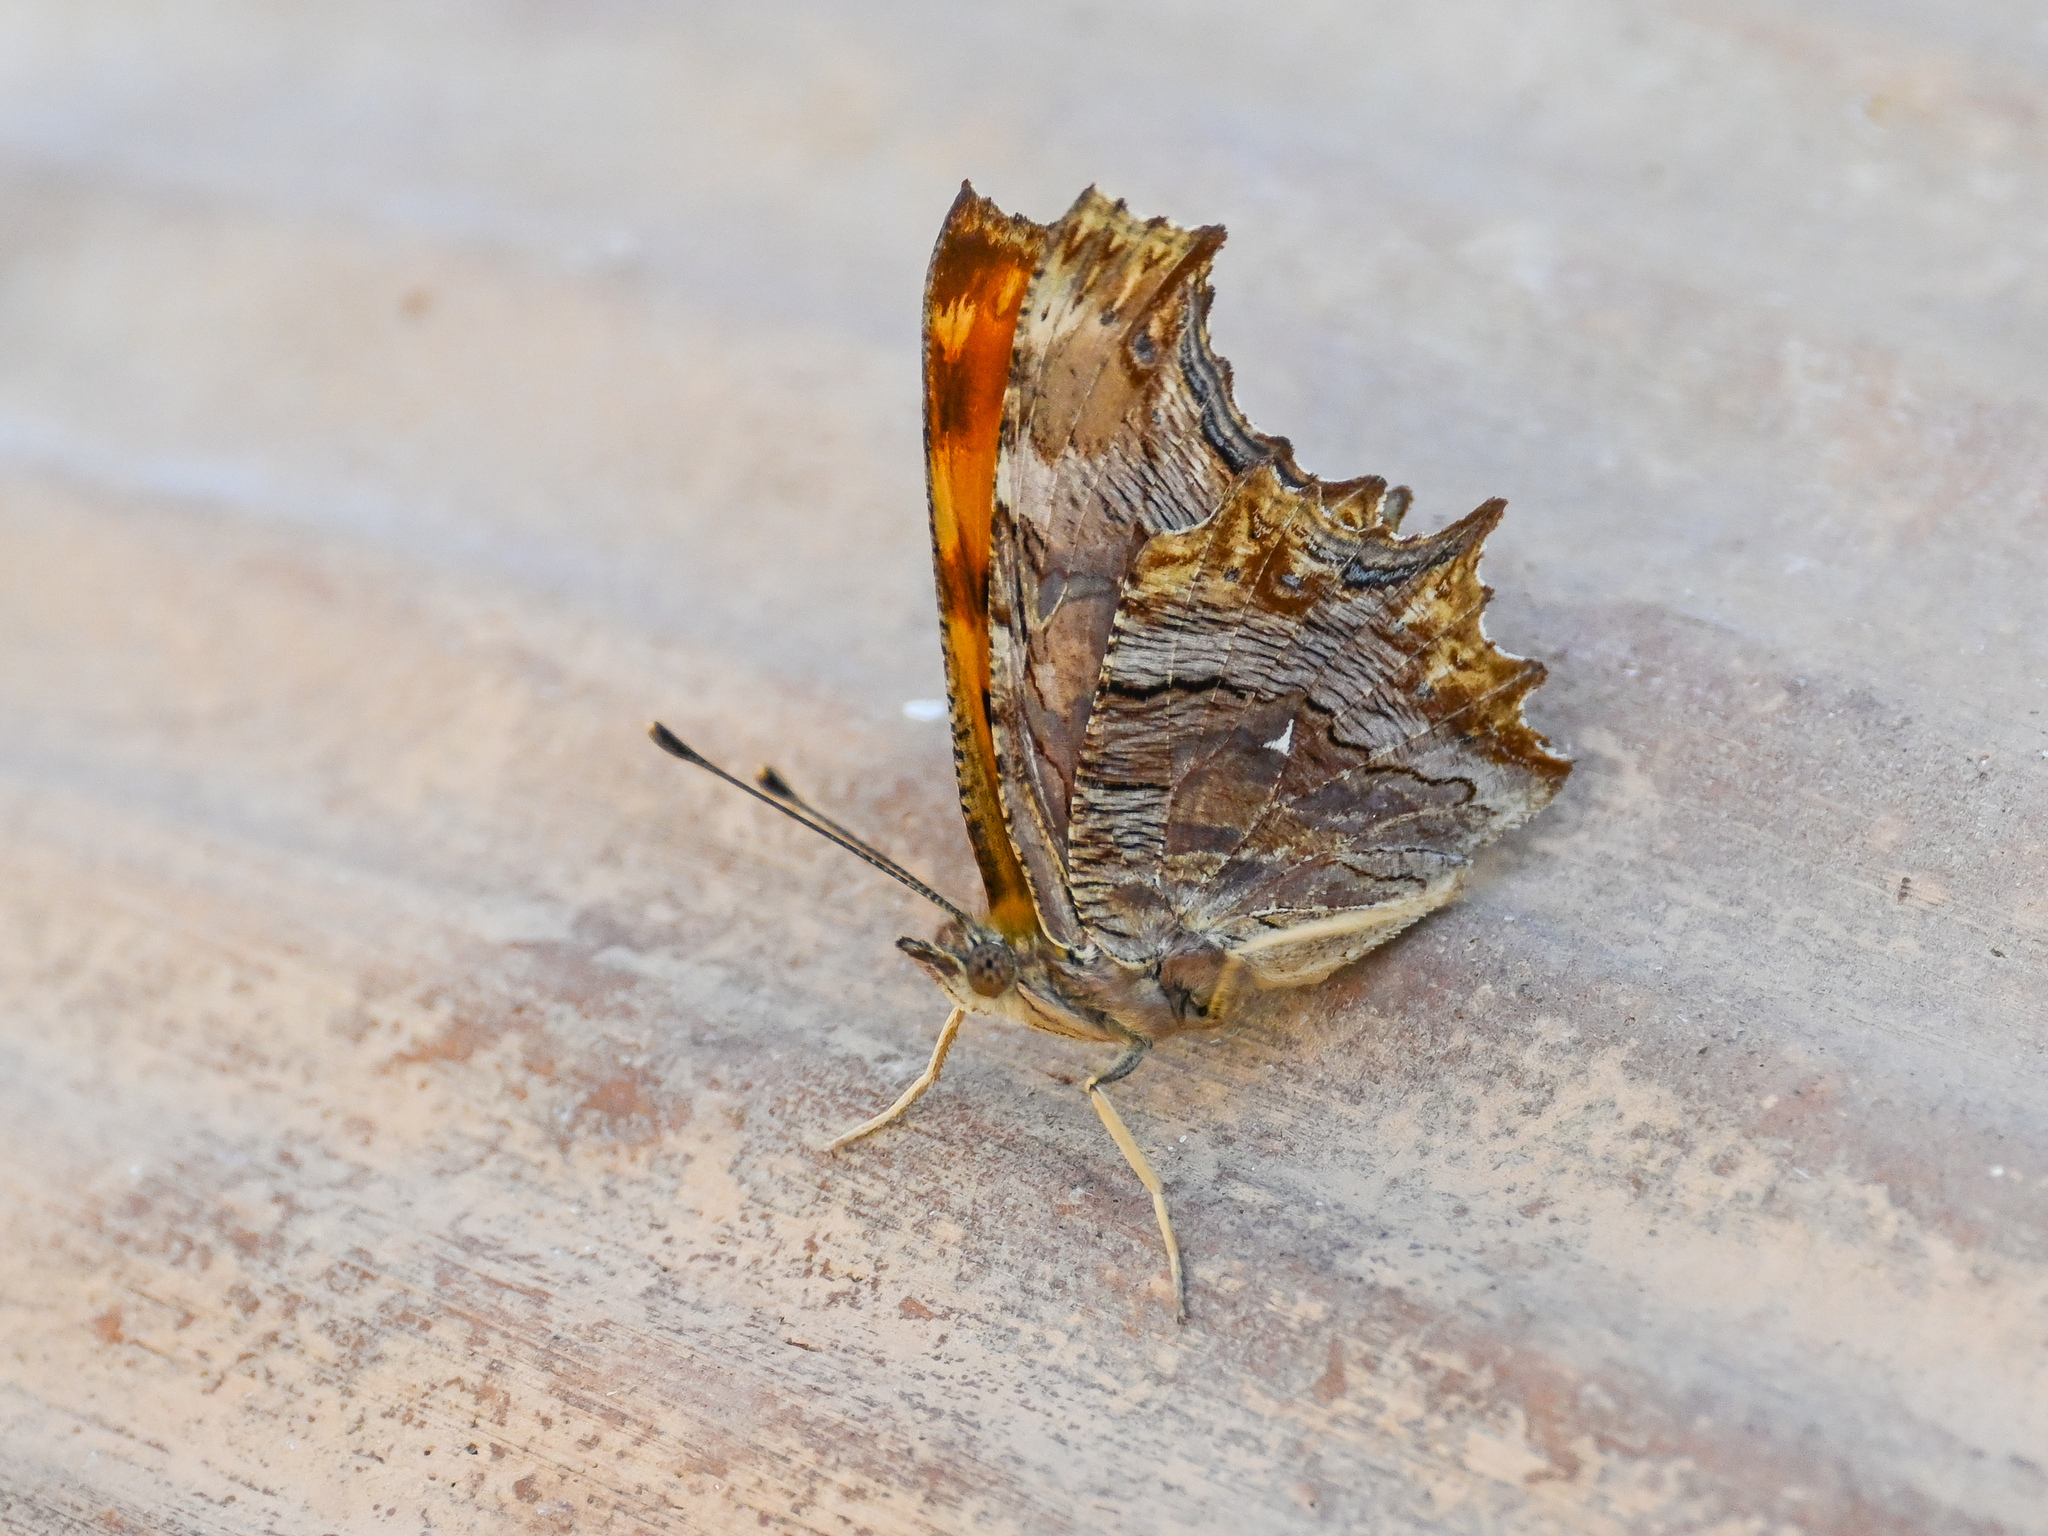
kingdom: Animalia
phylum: Arthropoda
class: Insecta
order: Lepidoptera
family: Nymphalidae
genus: Polygonia
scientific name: Polygonia egea
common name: Southern comma
